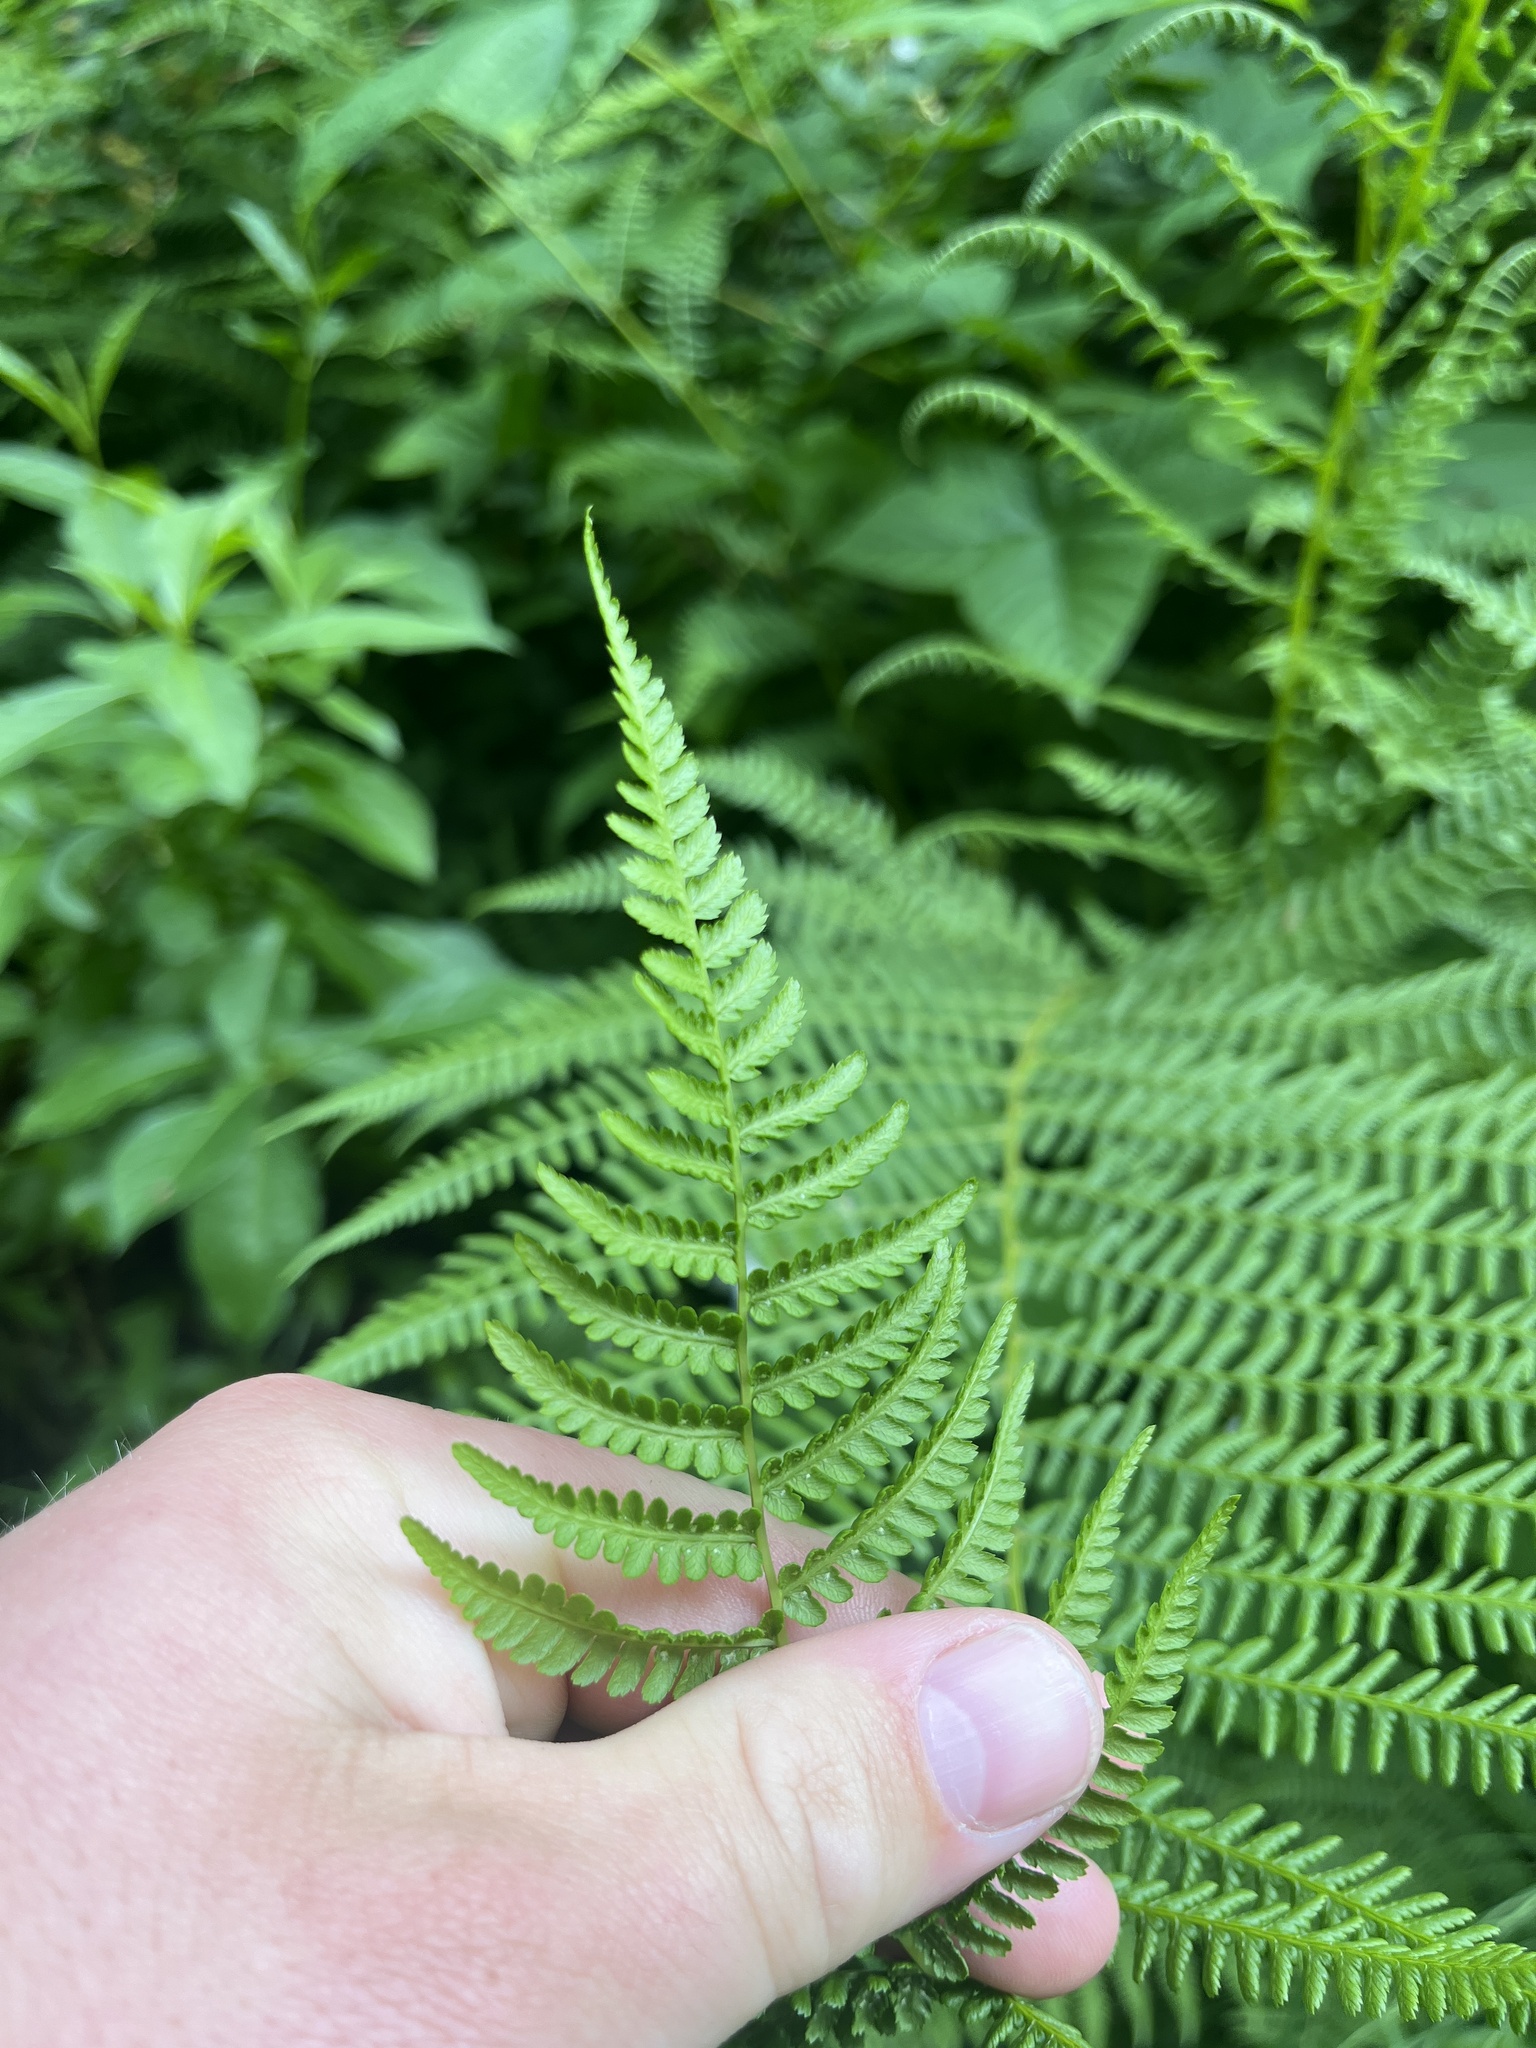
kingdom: Plantae
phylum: Tracheophyta
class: Polypodiopsida
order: Polypodiales
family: Athyriaceae
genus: Athyrium
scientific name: Athyrium filix-femina
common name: Lady fern
